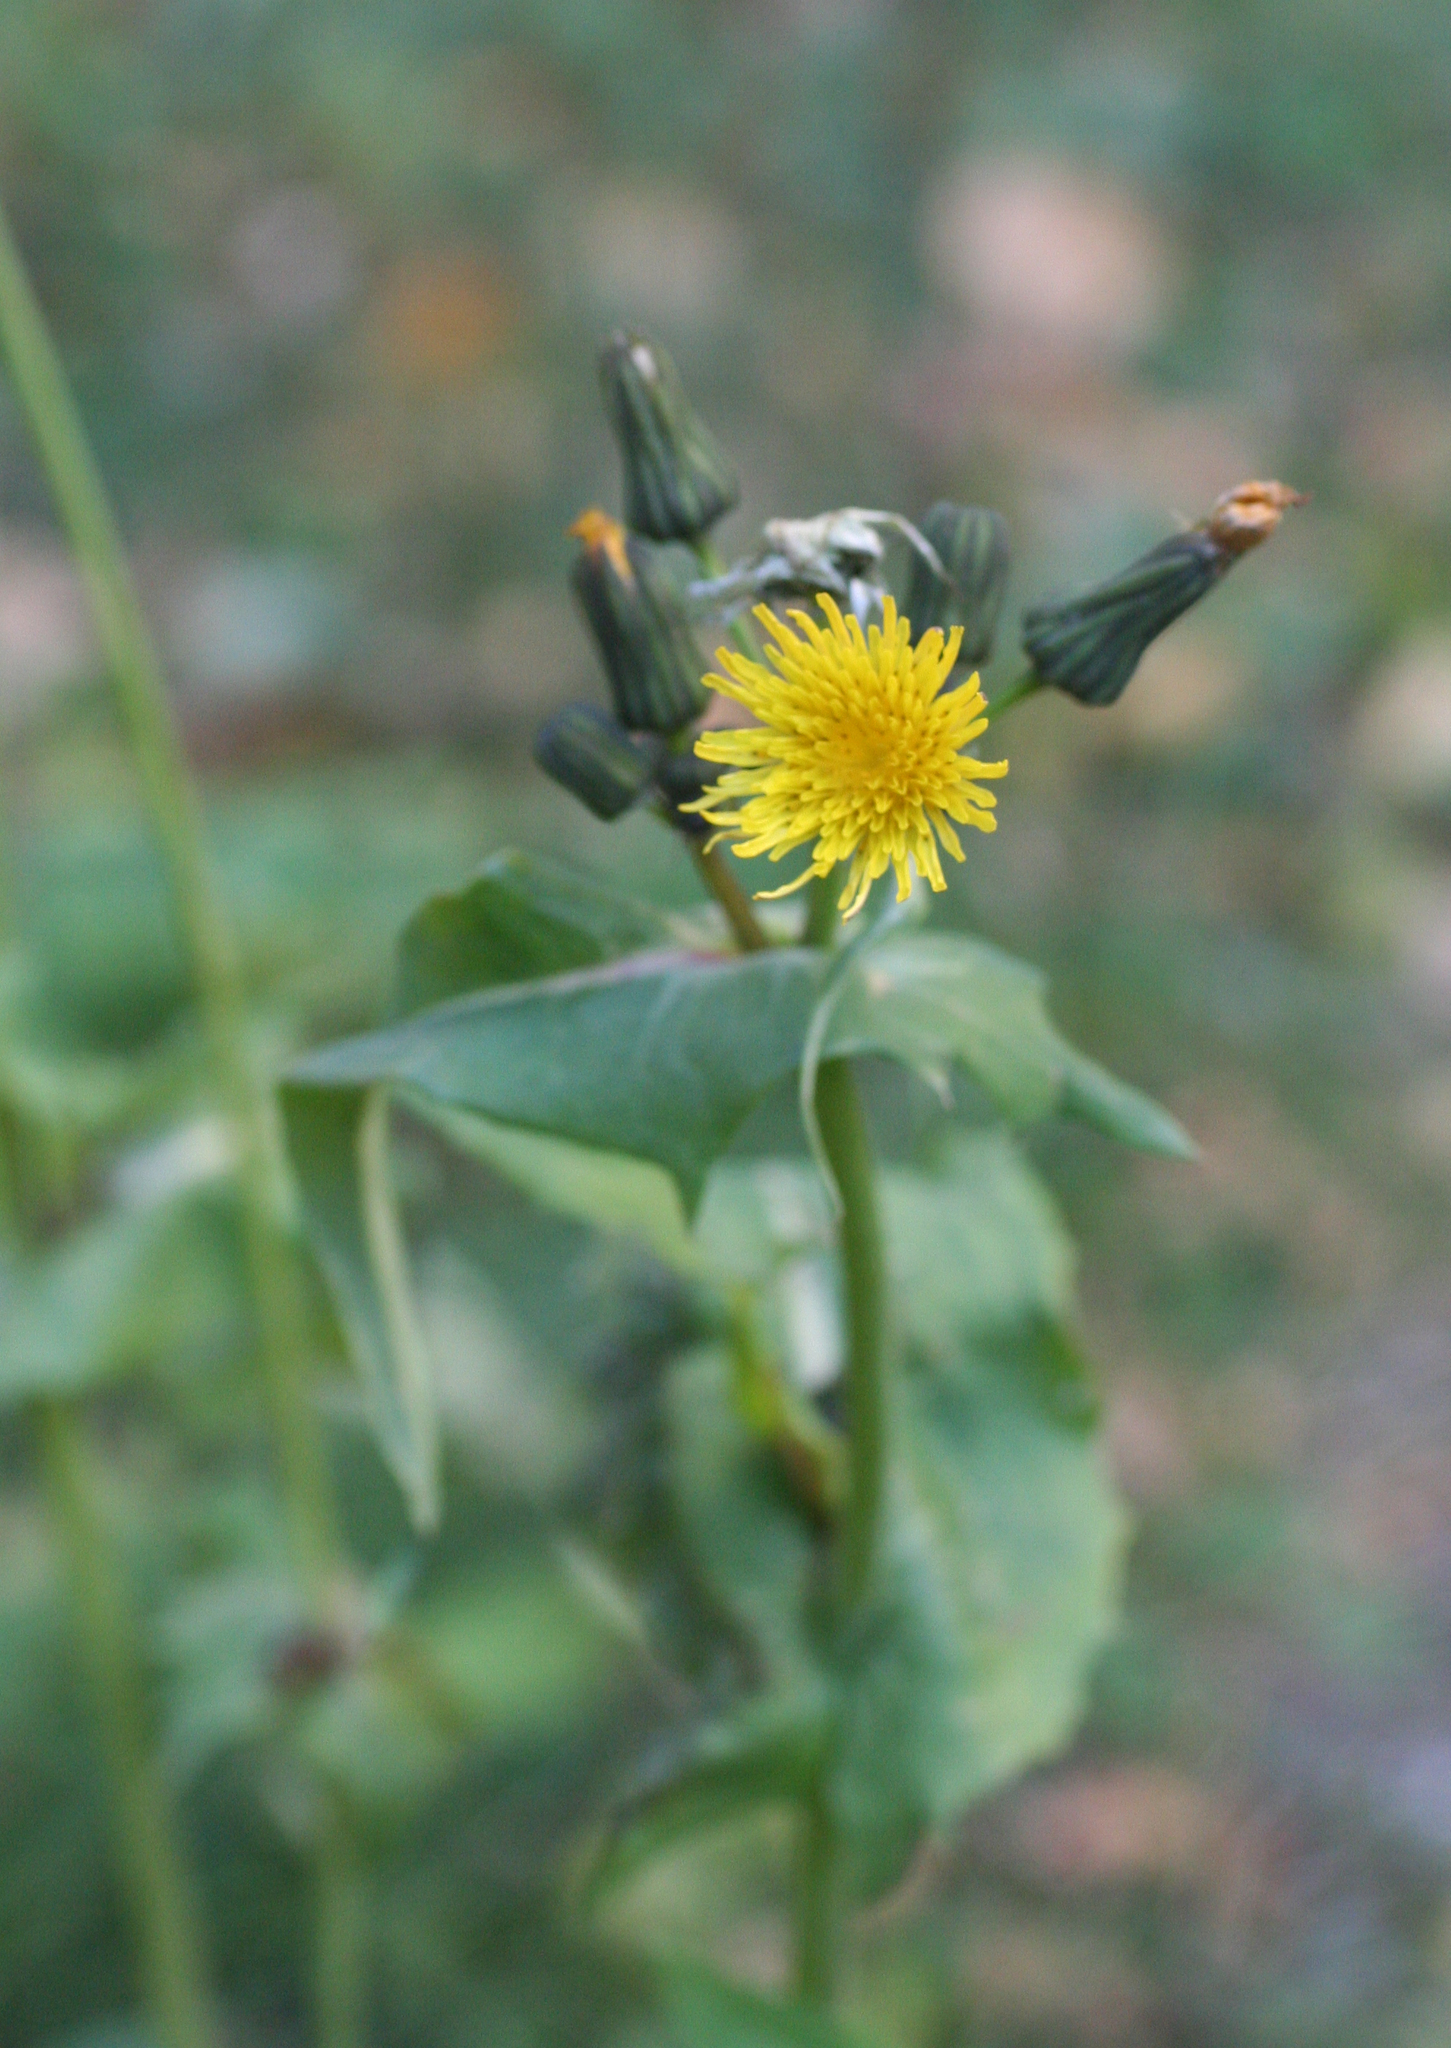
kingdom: Plantae
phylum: Tracheophyta
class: Magnoliopsida
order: Asterales
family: Asteraceae
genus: Sonchus
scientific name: Sonchus oleraceus
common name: Common sowthistle
